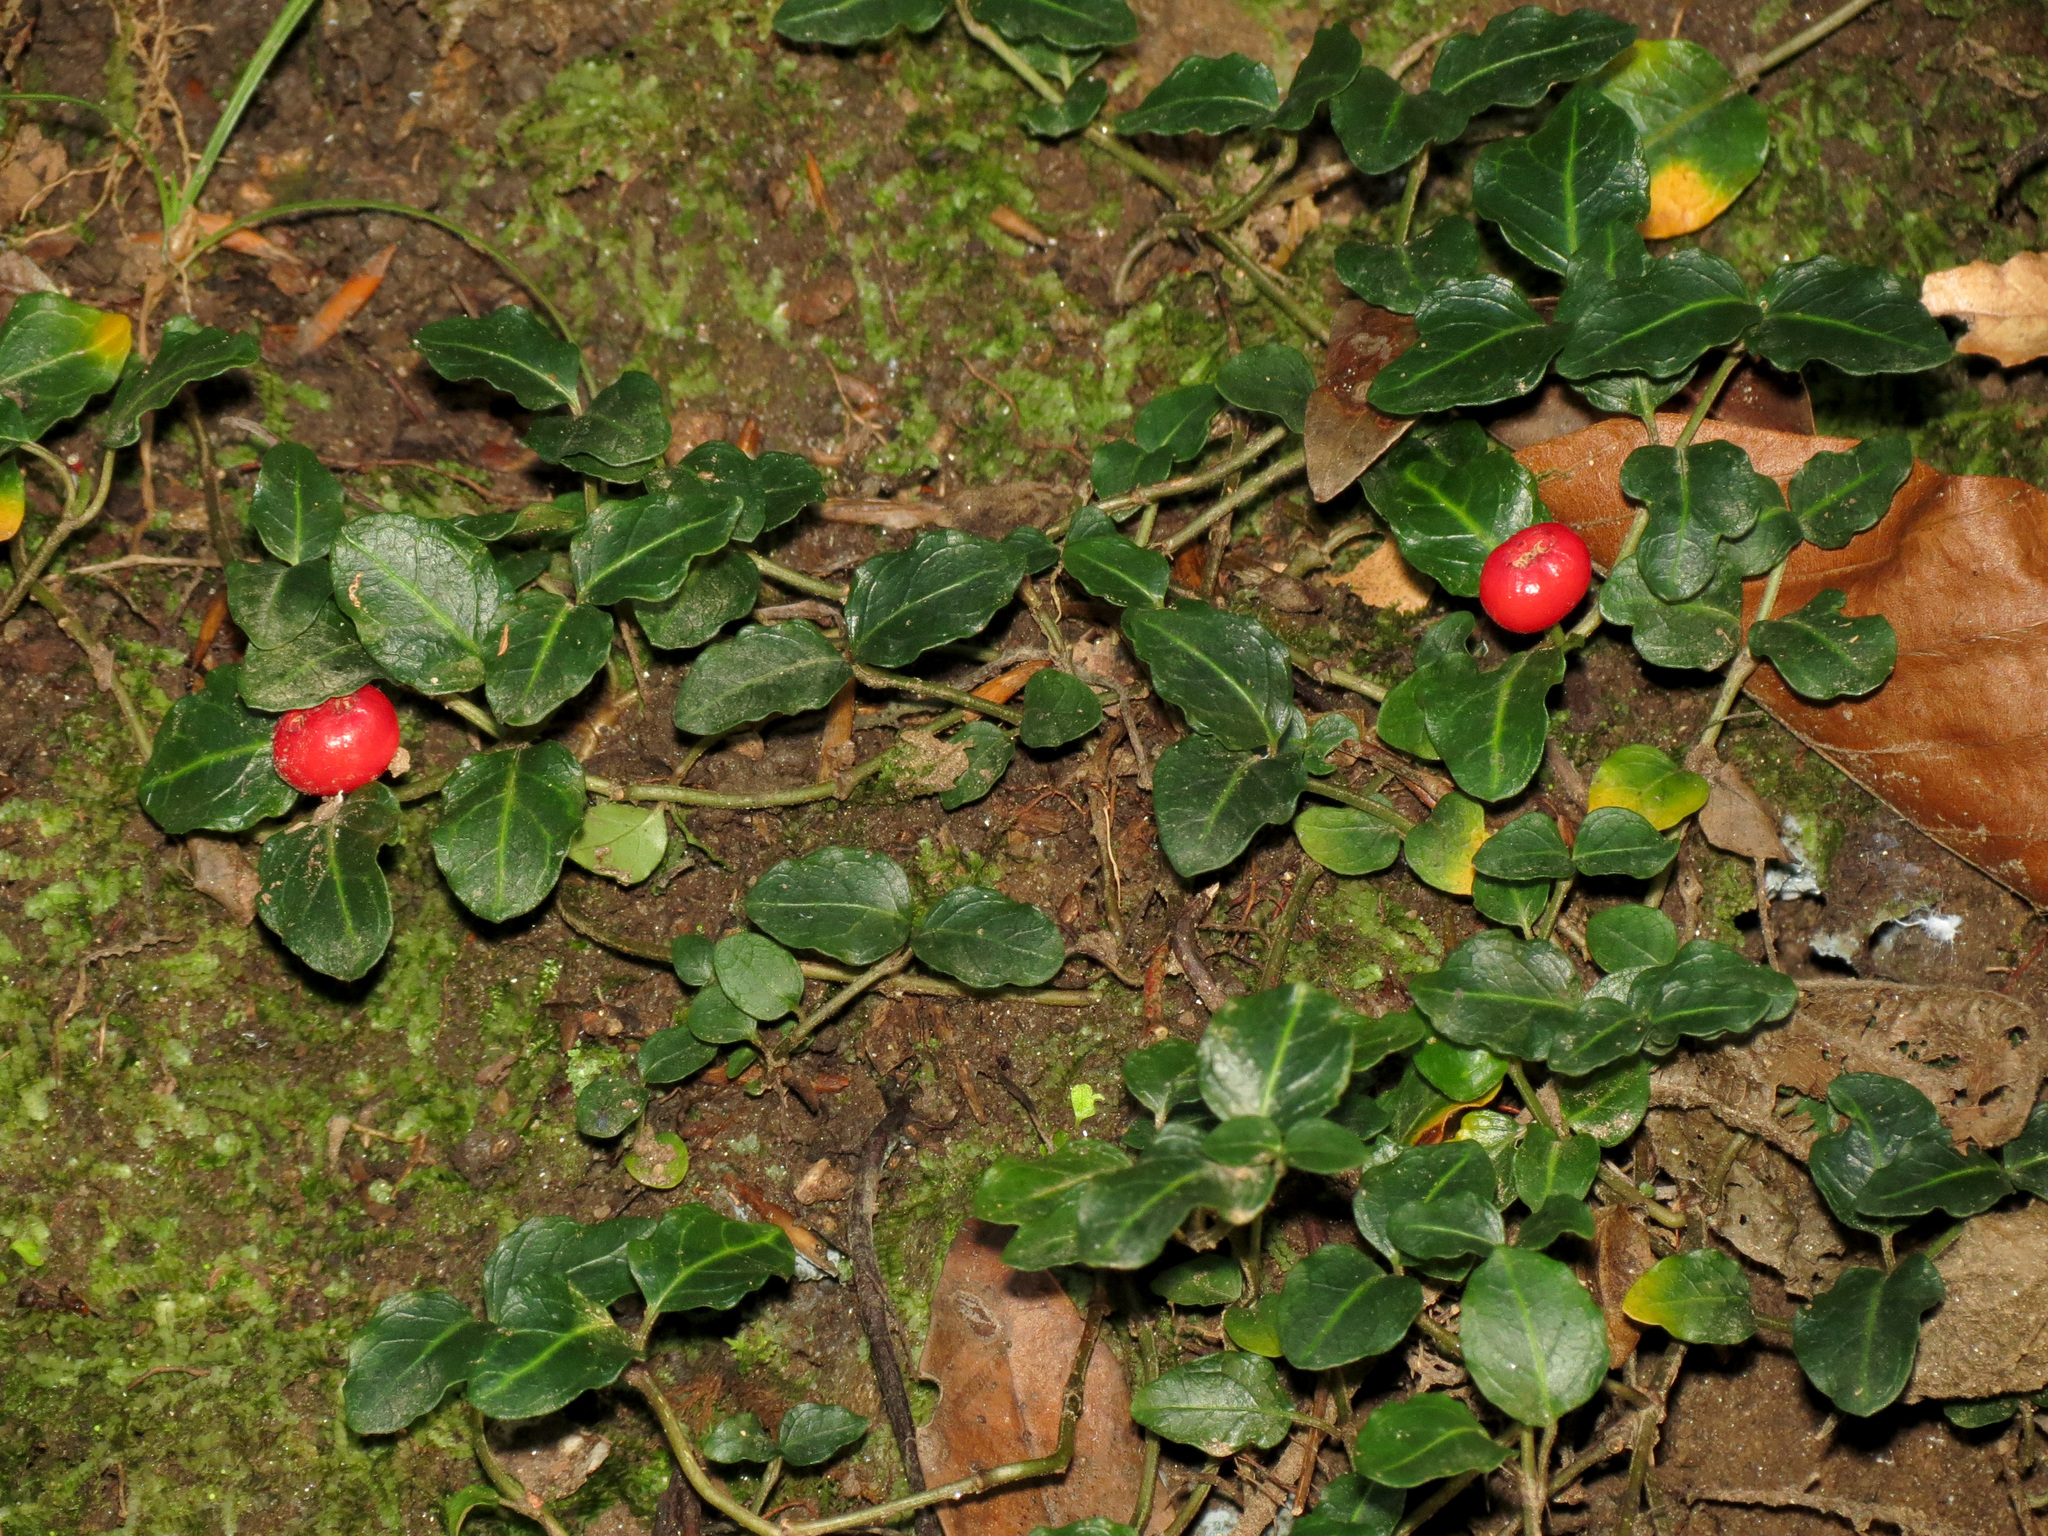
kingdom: Plantae
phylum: Tracheophyta
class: Magnoliopsida
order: Gentianales
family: Rubiaceae
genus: Mitchella
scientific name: Mitchella repens
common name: Partridge-berry
